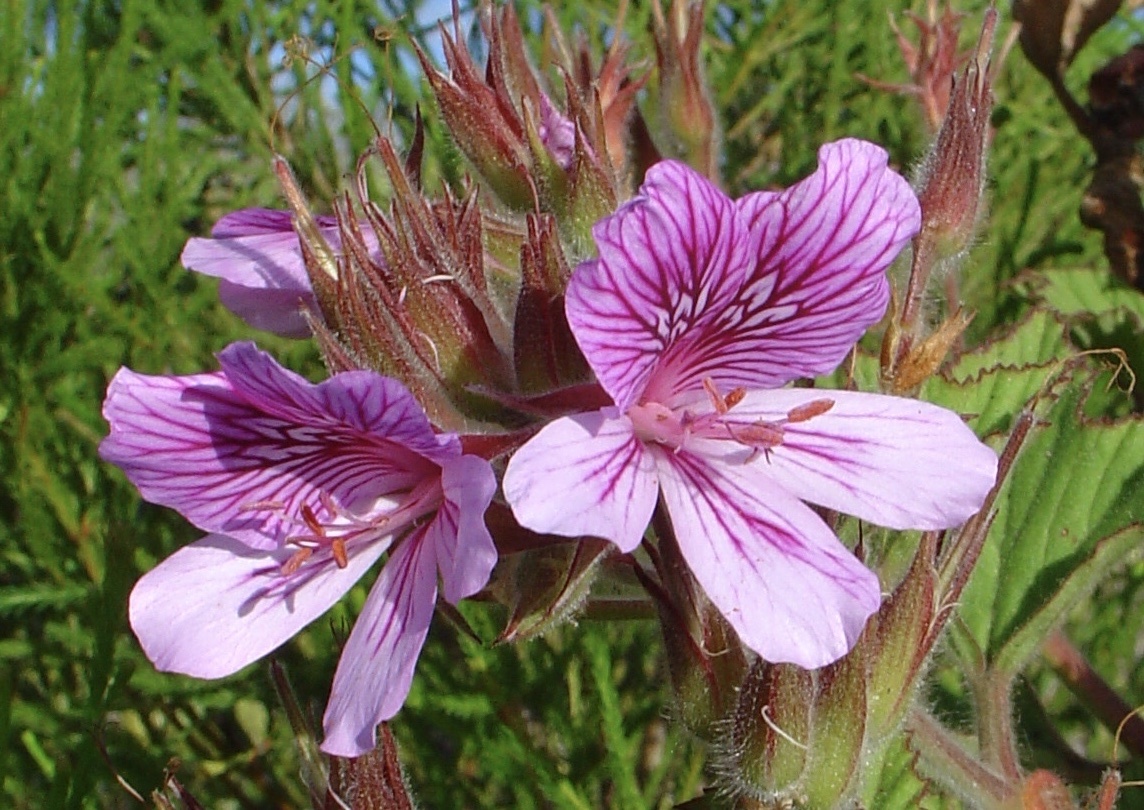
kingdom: Plantae
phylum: Tracheophyta
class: Magnoliopsida
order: Geraniales
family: Geraniaceae
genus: Pelargonium
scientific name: Pelargonium cucullatum
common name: Tree pelargonium
